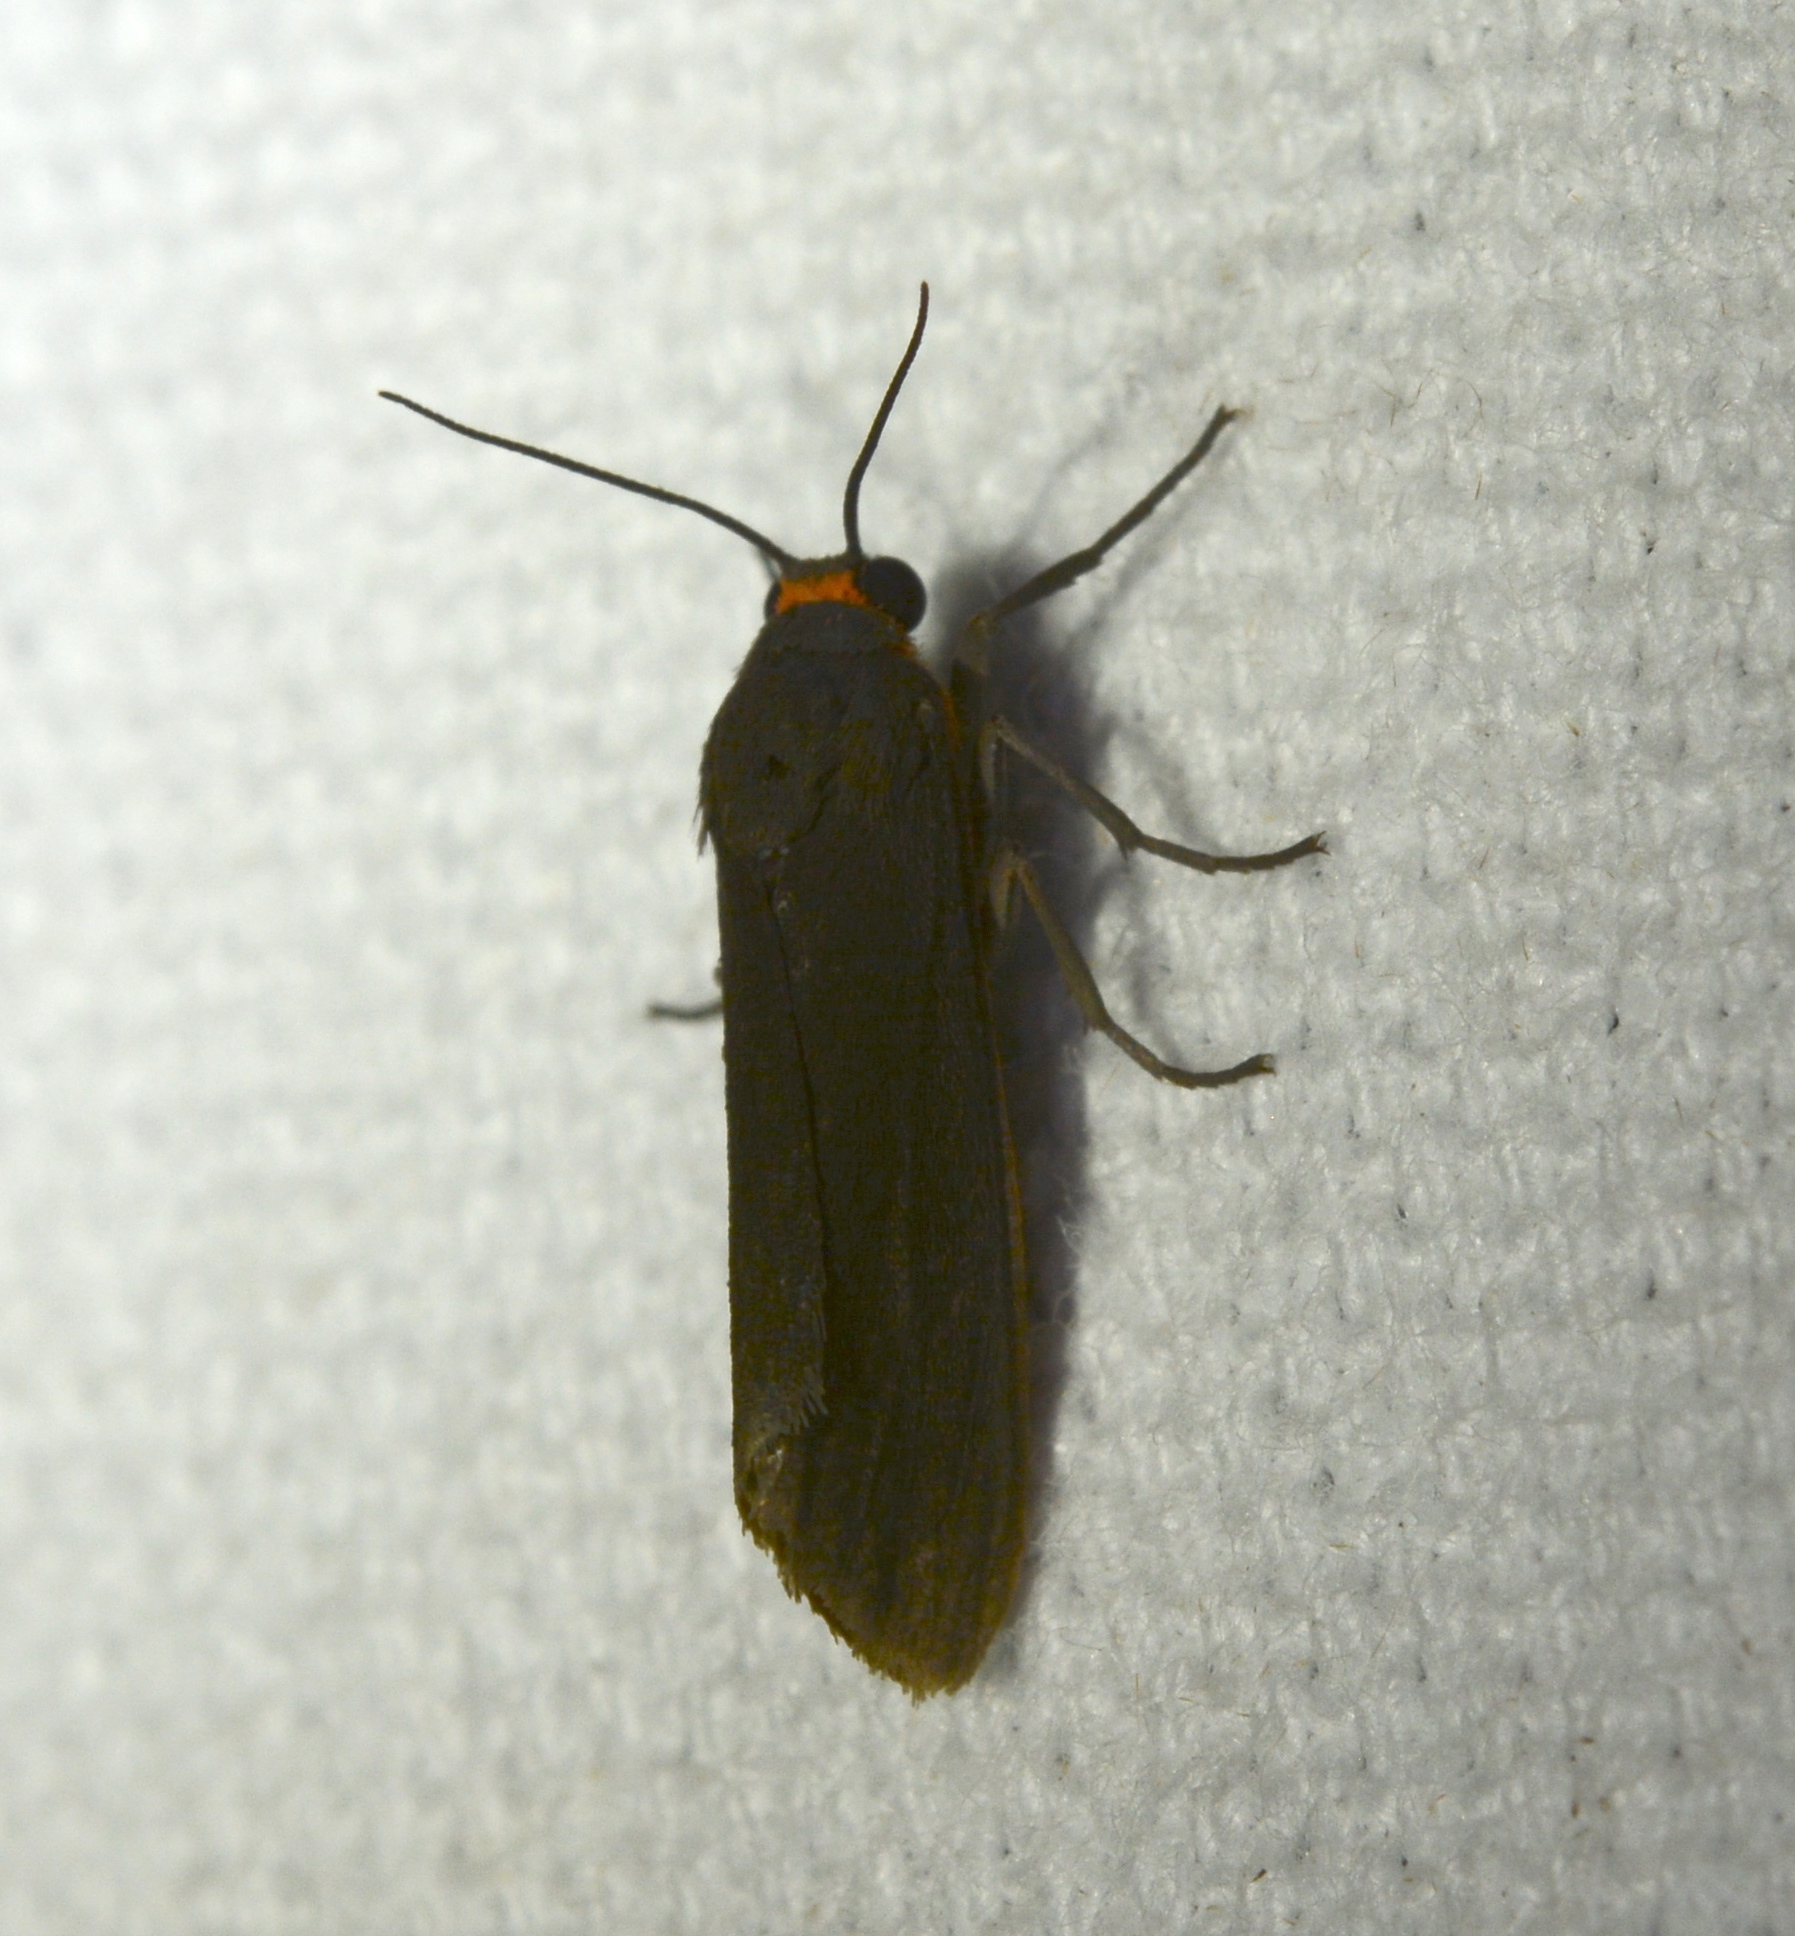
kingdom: Animalia
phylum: Arthropoda
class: Insecta
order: Lepidoptera
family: Erebidae
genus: Cisseps
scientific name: Cisseps fulvicollis
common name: Yellow-collared scape moth
